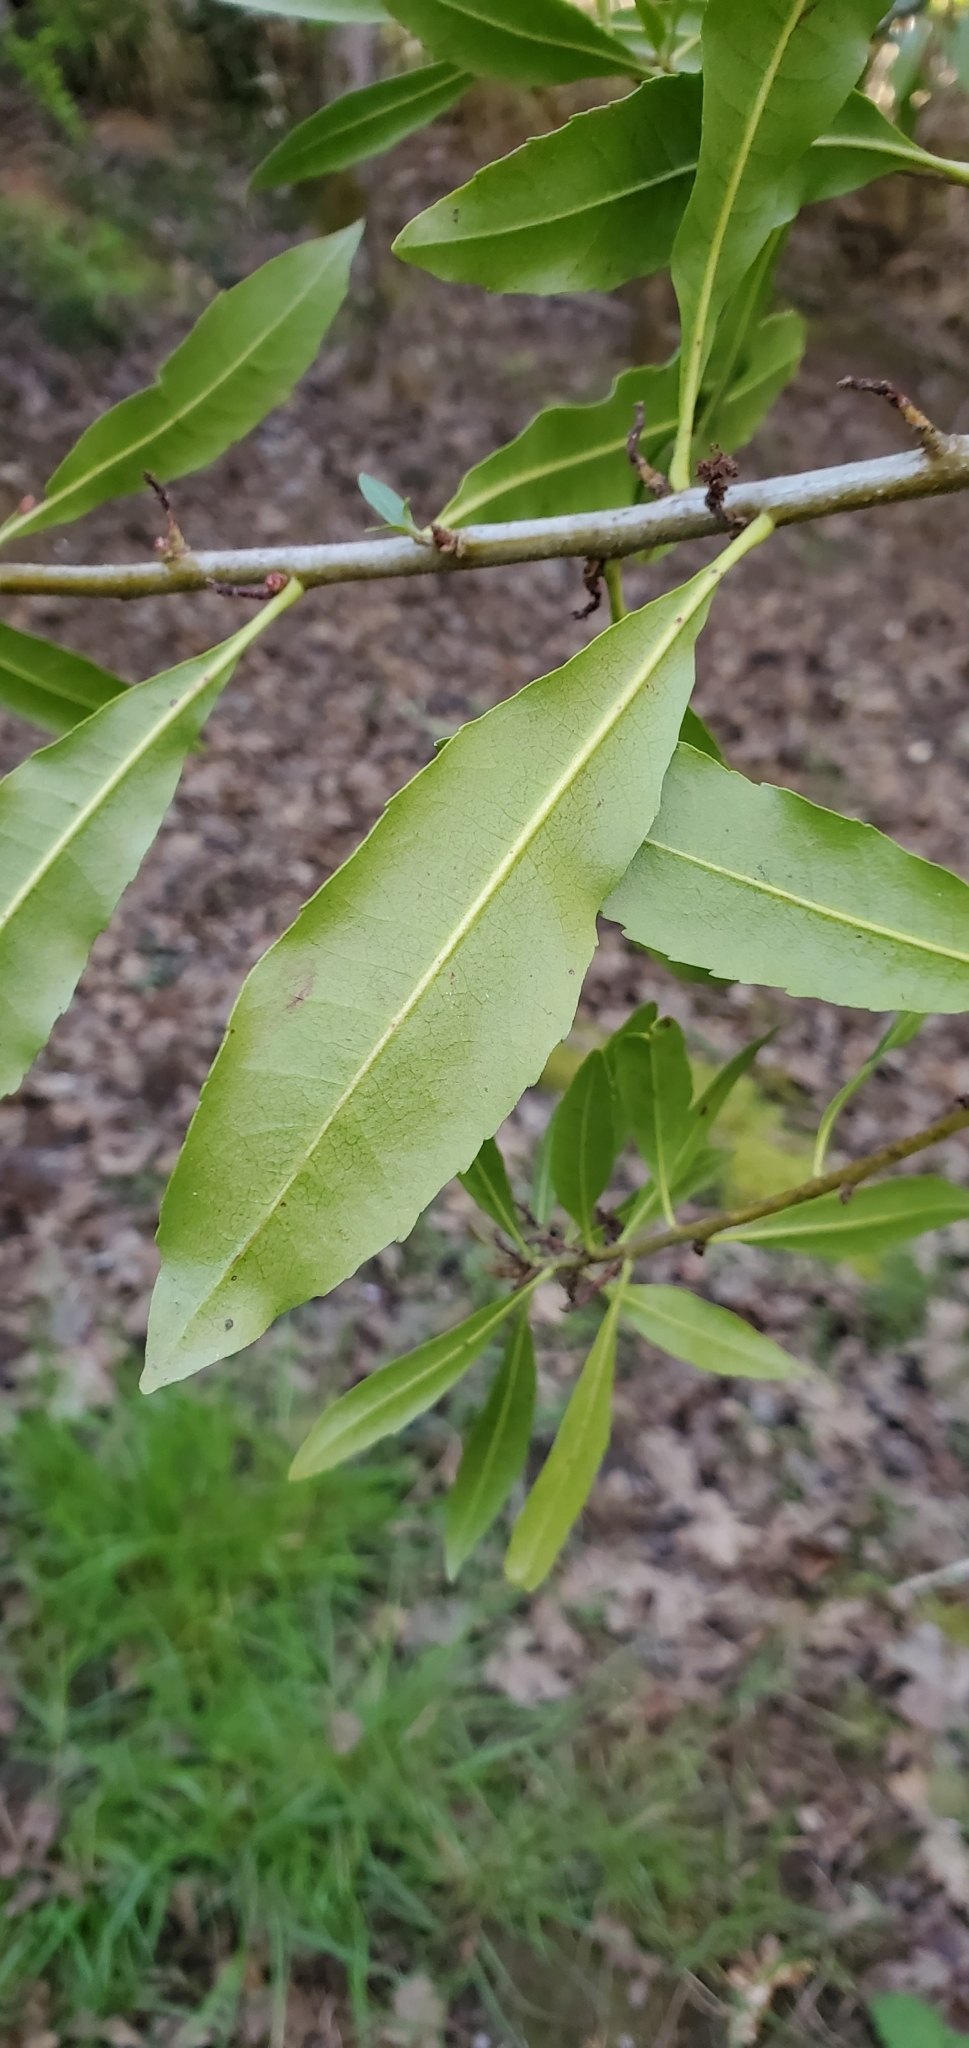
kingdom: Plantae
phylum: Tracheophyta
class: Magnoliopsida
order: Fagales
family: Myricaceae
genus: Morella
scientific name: Morella californica
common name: California wax-myrtle
